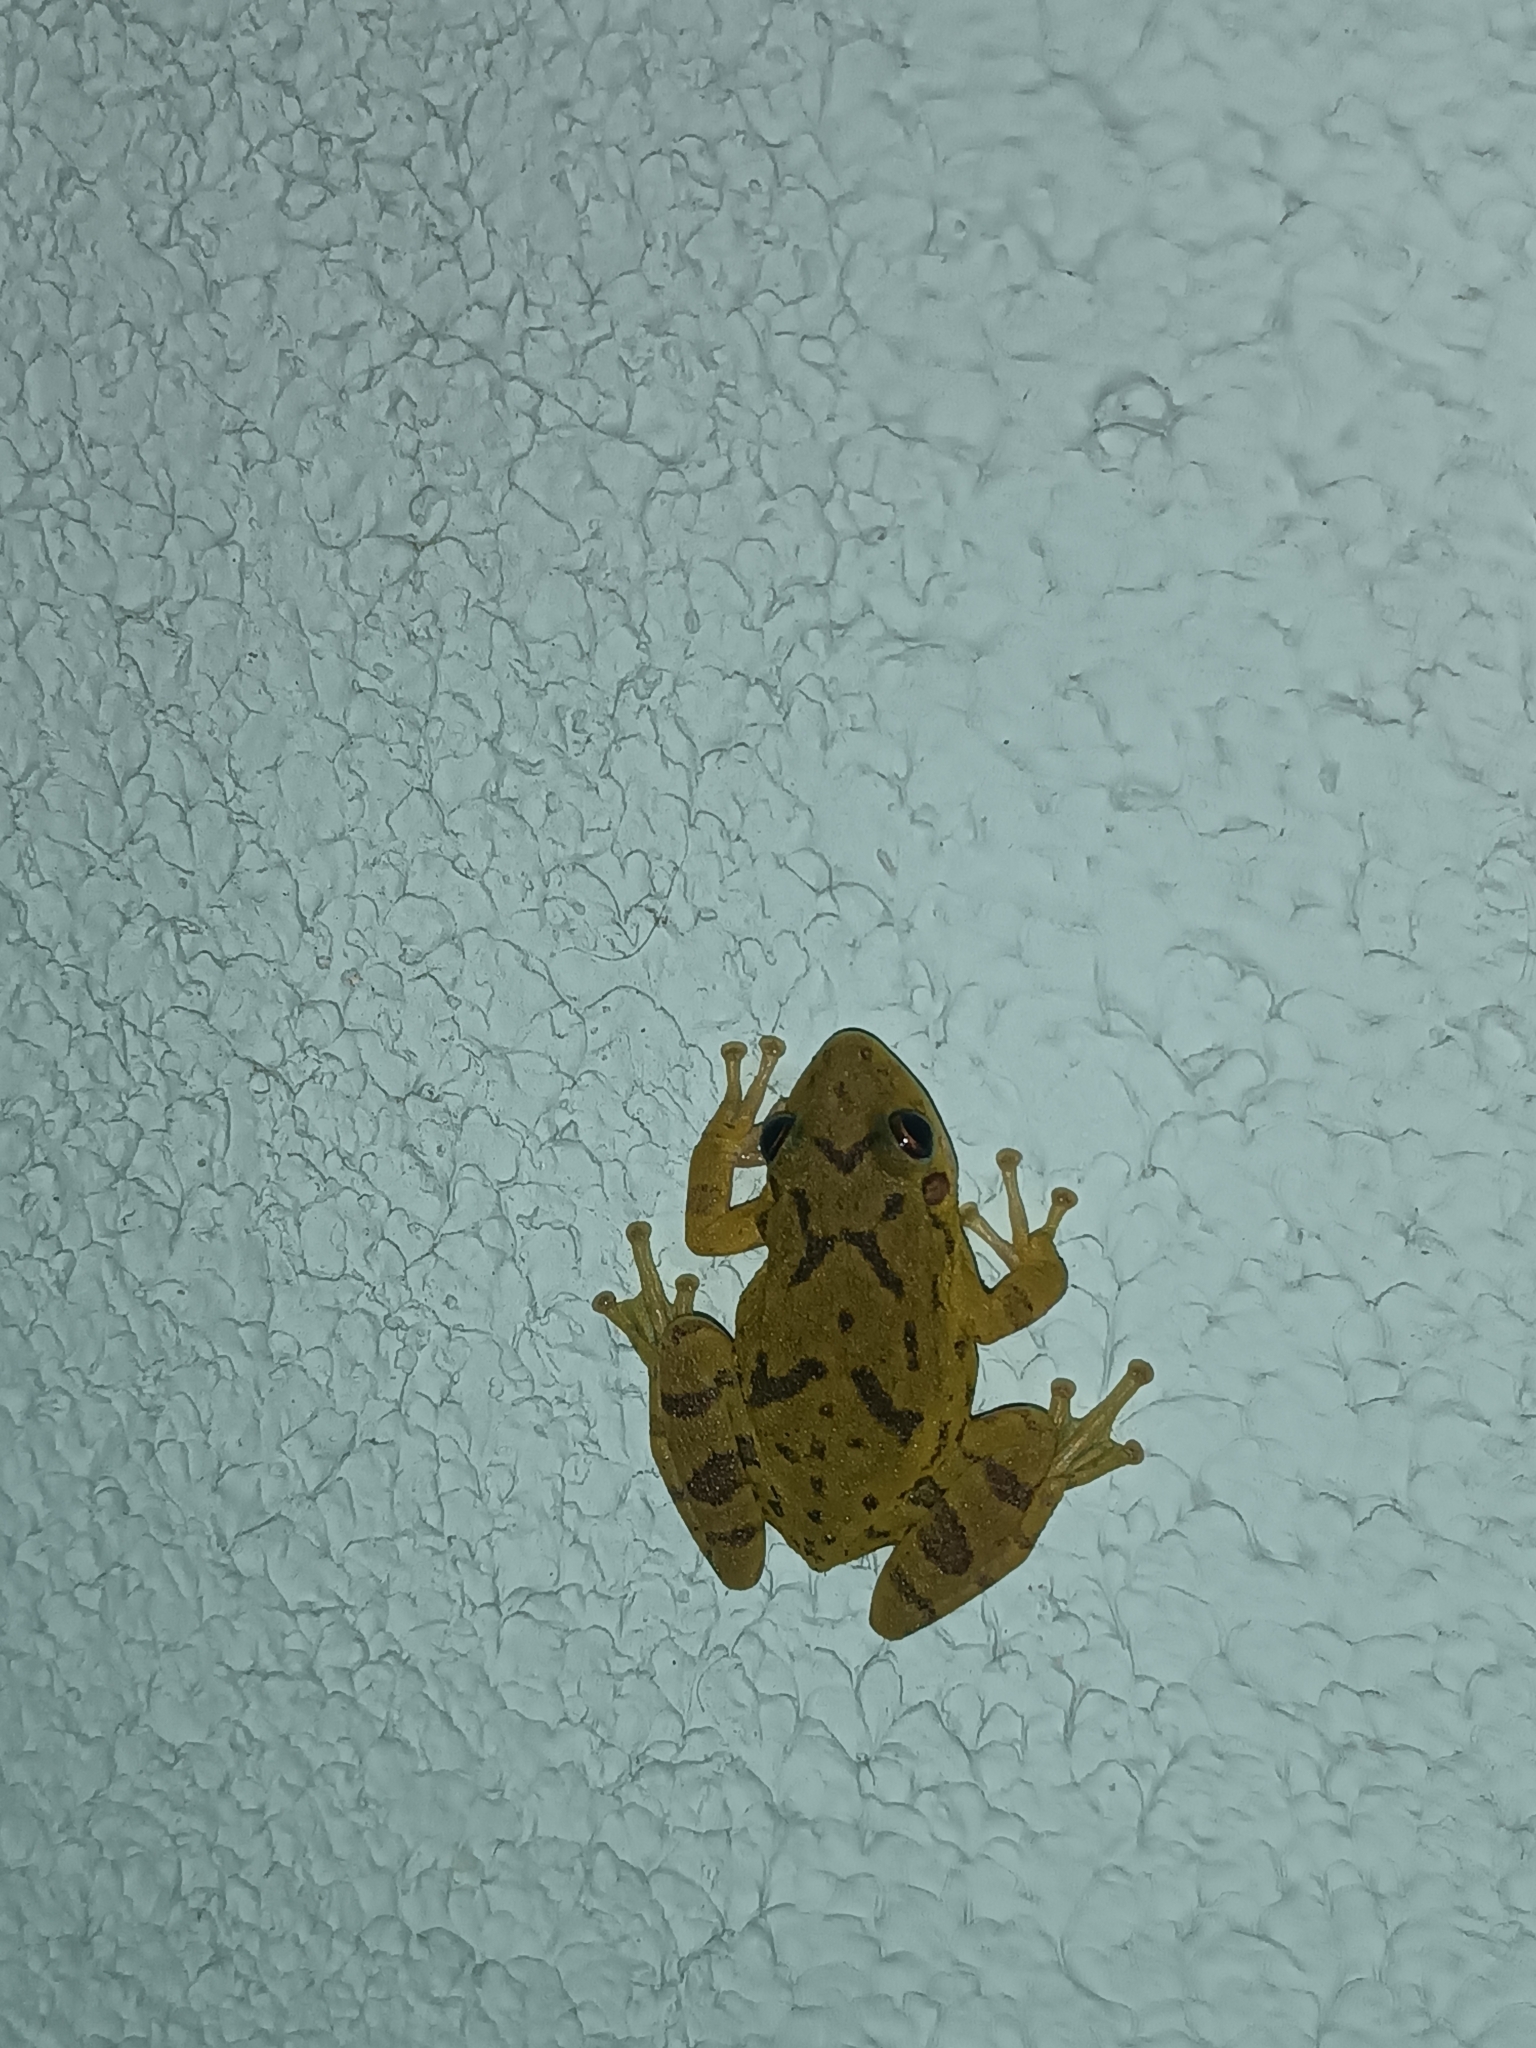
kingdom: Animalia
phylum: Chordata
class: Amphibia
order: Anura
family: Hylidae
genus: Scinax
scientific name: Scinax fuscovarius
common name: Fuscous-blotched treefrog
